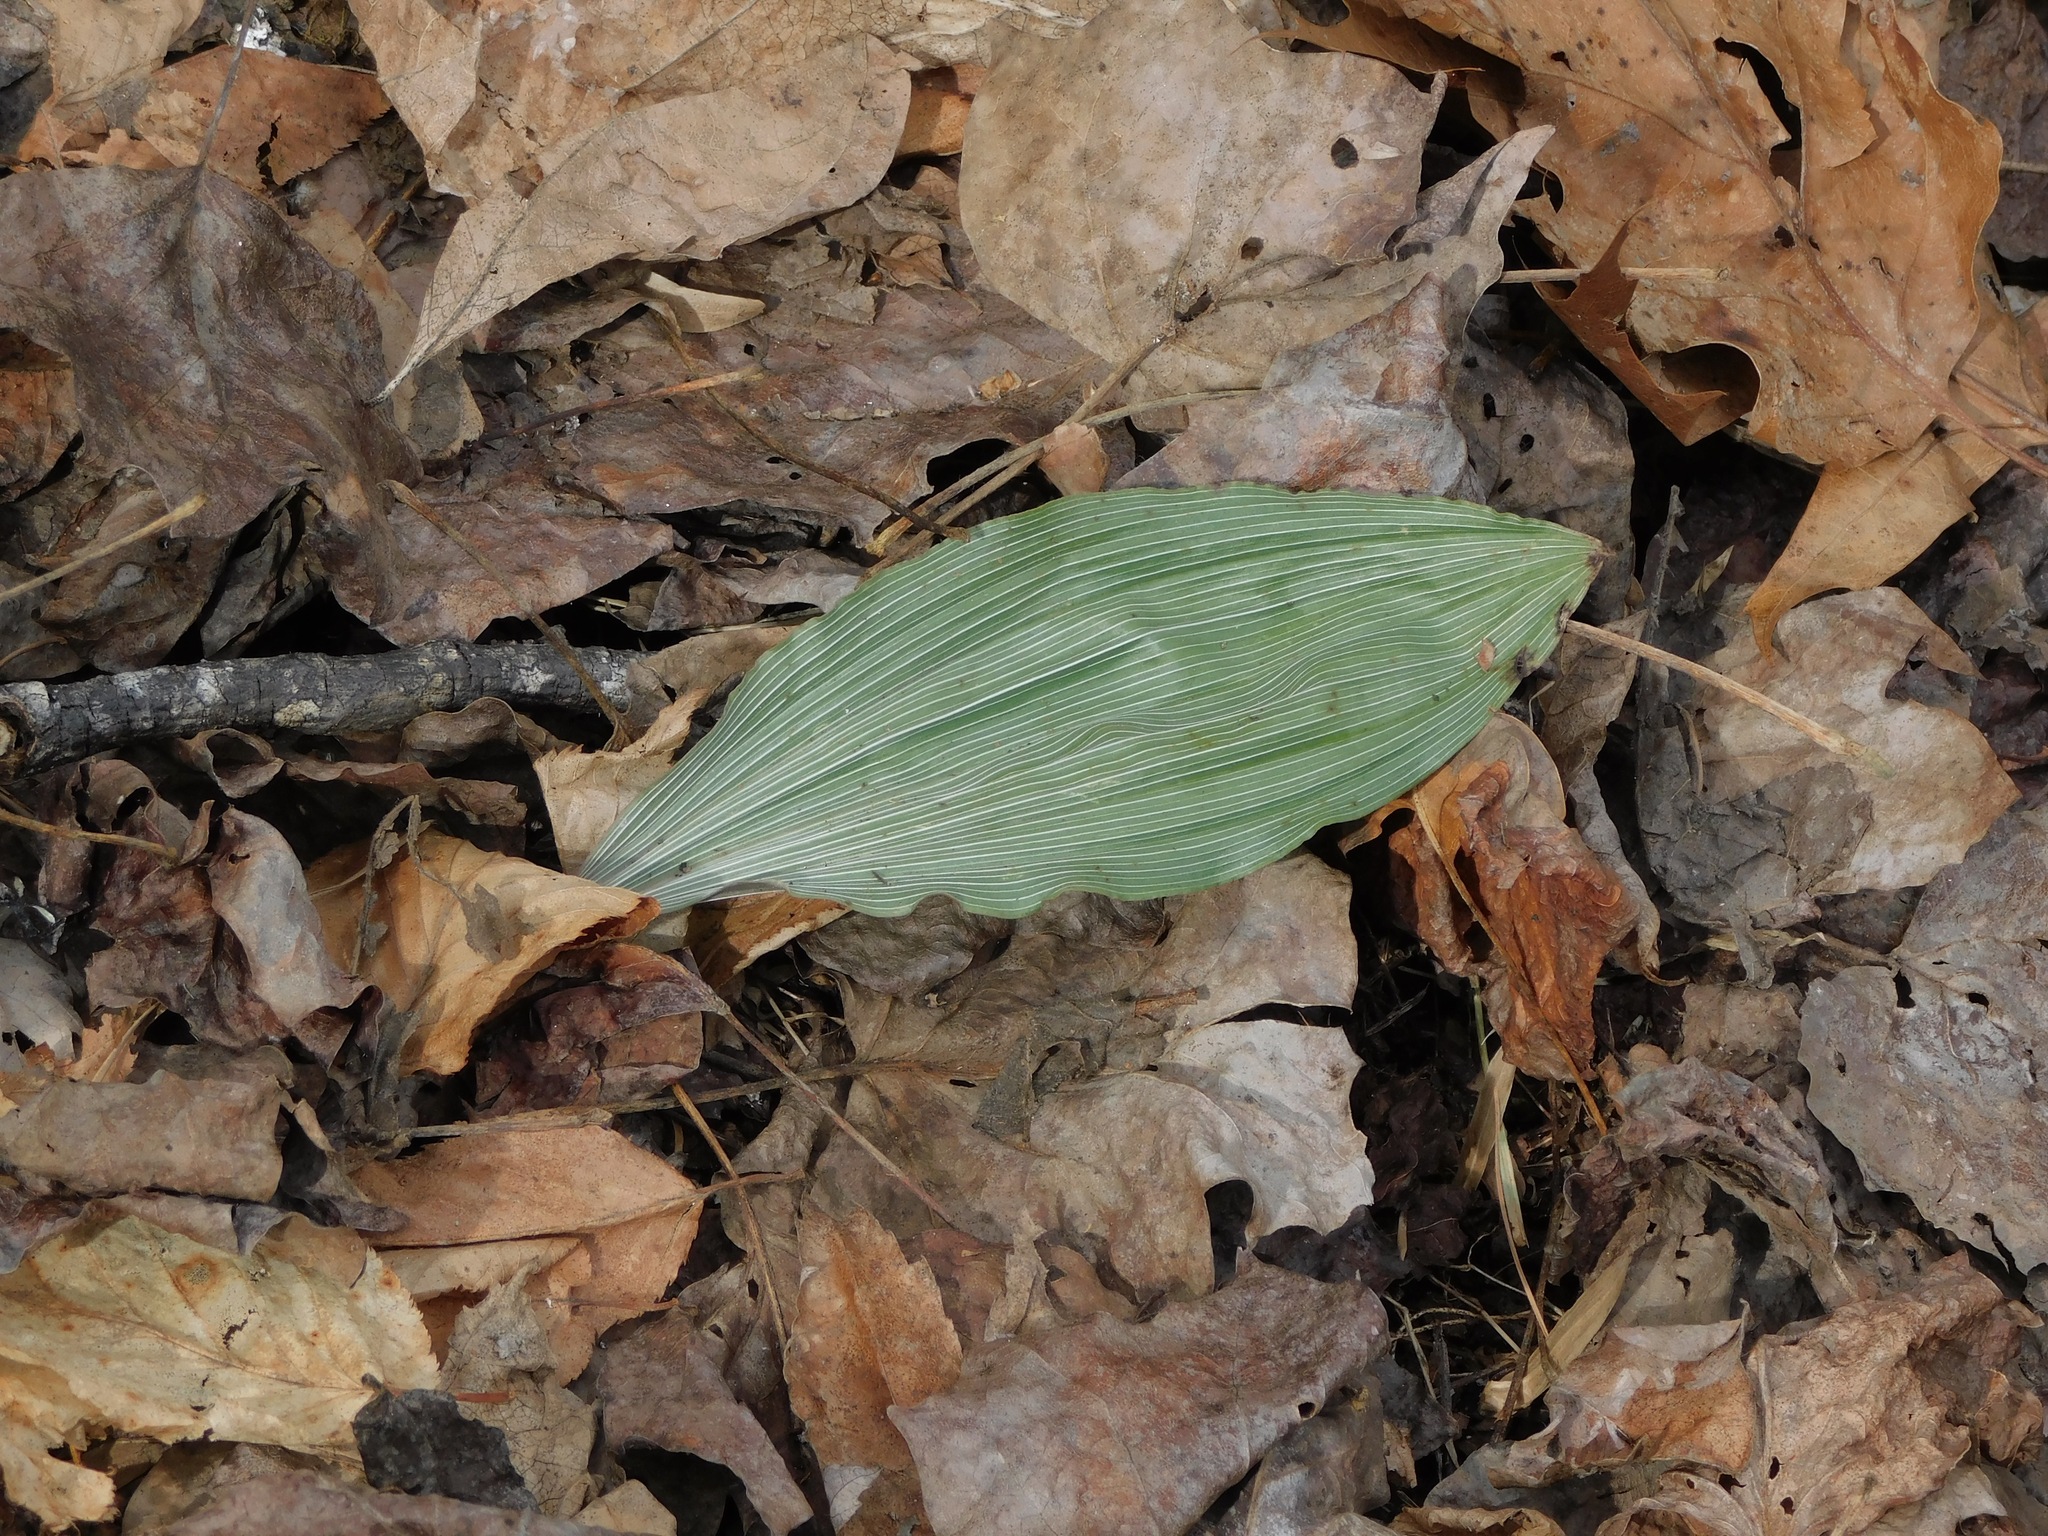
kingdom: Plantae
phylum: Tracheophyta
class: Liliopsida
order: Asparagales
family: Orchidaceae
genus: Aplectrum
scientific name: Aplectrum hyemale
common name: Adam-and-eve
